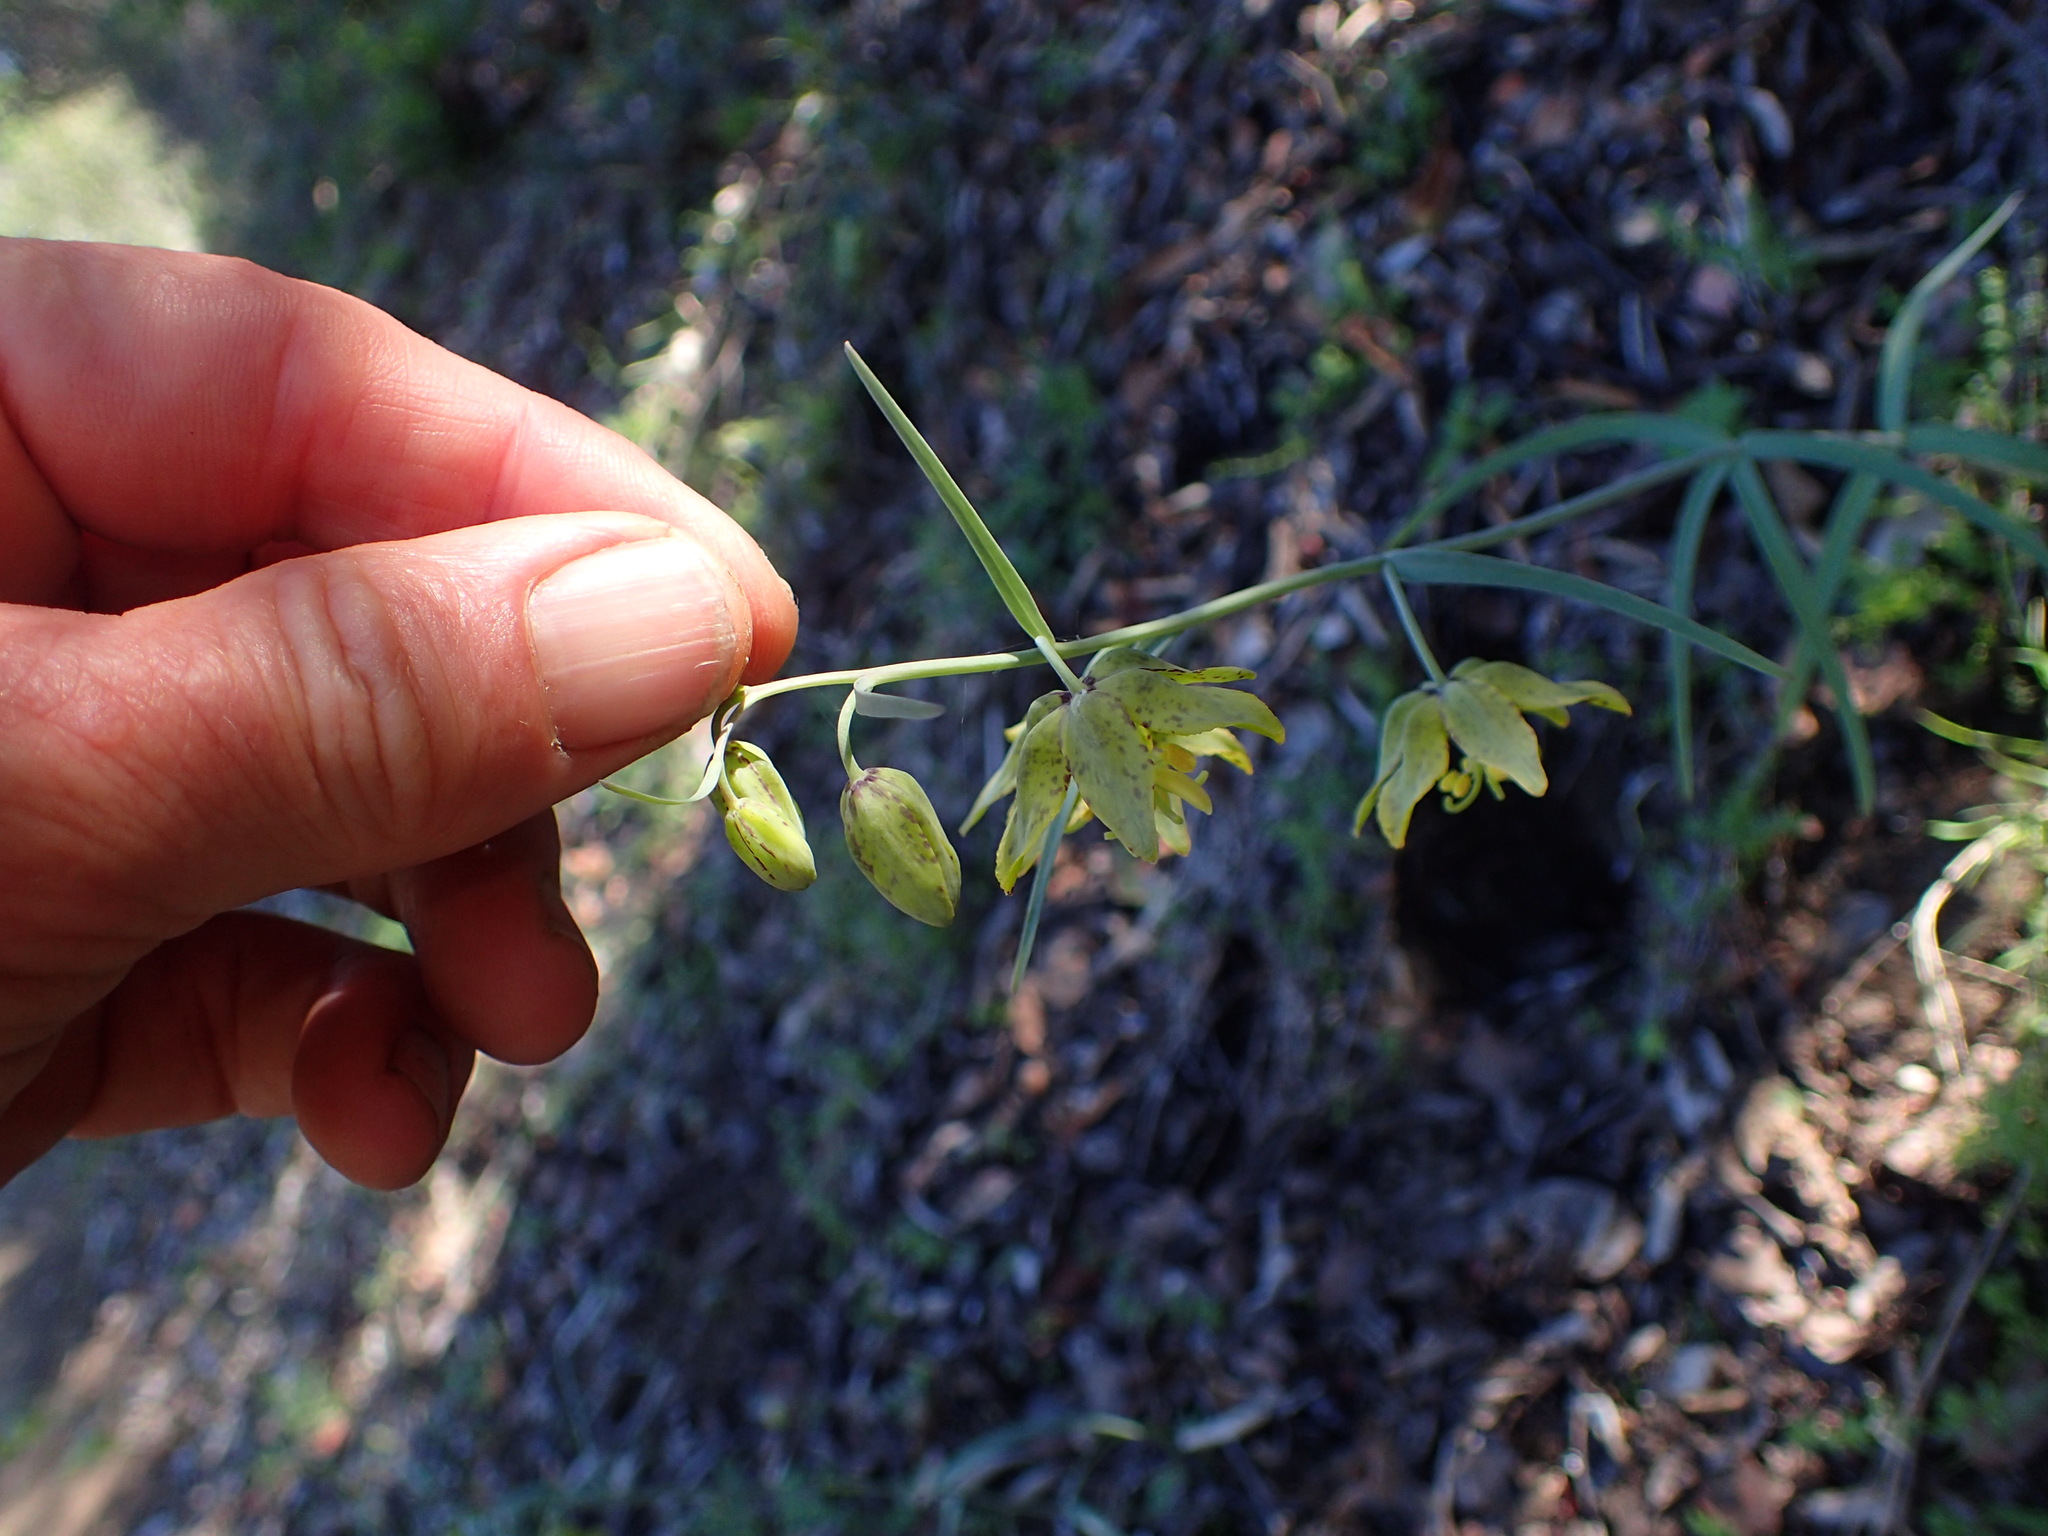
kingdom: Plantae
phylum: Tracheophyta
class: Liliopsida
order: Liliales
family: Liliaceae
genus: Fritillaria
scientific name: Fritillaria ojaiensis
